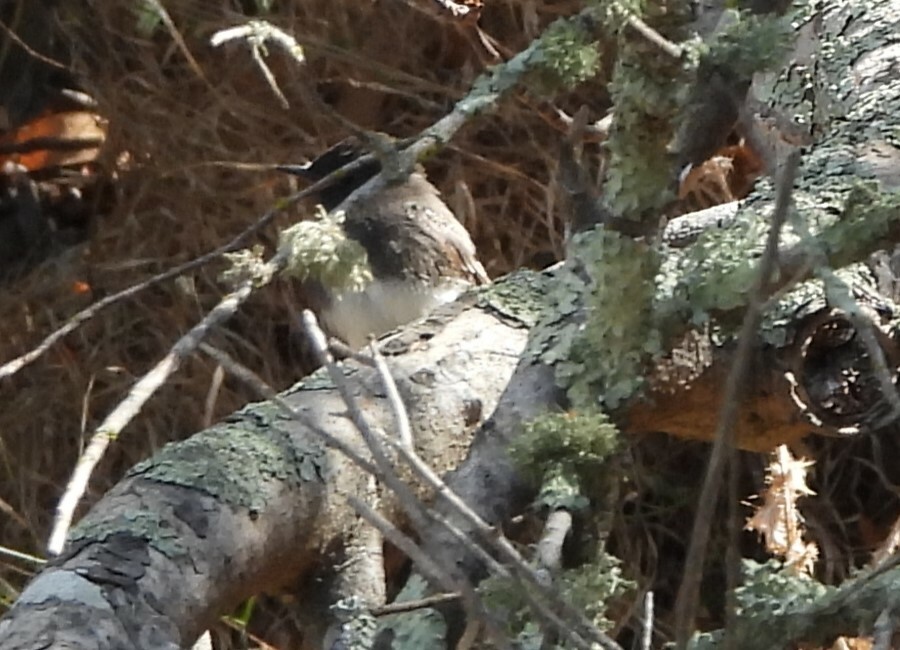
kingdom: Animalia
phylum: Chordata
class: Aves
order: Passeriformes
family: Tyrannidae
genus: Sayornis
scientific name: Sayornis nigricans
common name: Black phoebe
